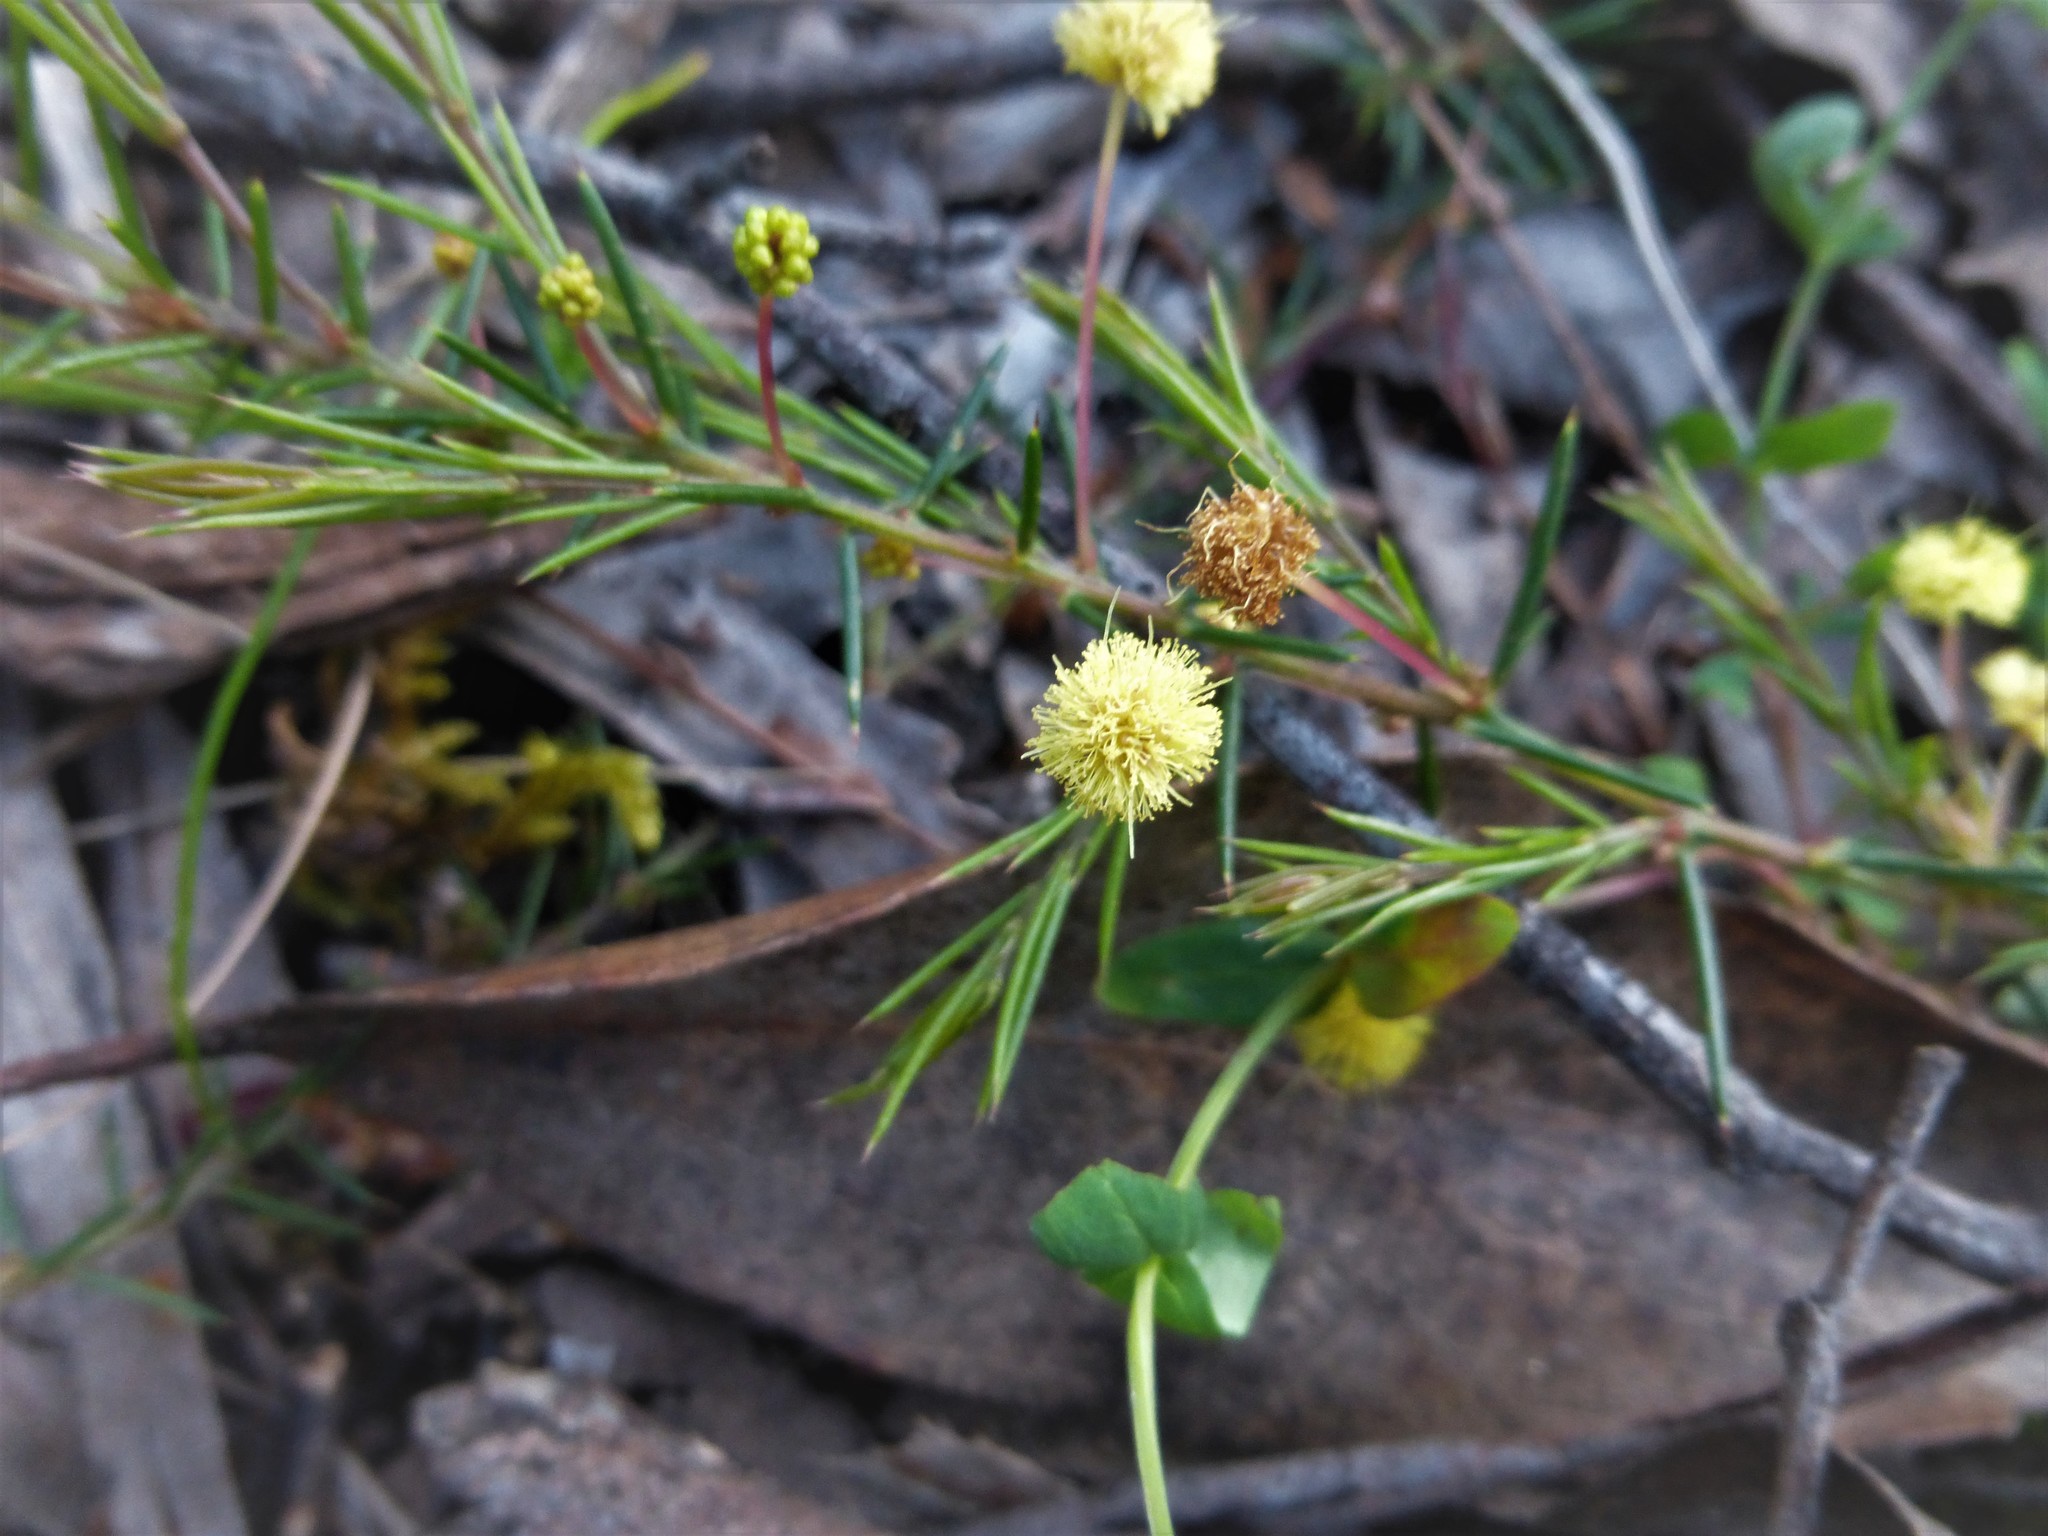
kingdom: Plantae
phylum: Tracheophyta
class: Magnoliopsida
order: Fabales
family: Fabaceae
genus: Acacia
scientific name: Acacia aculeatissima
